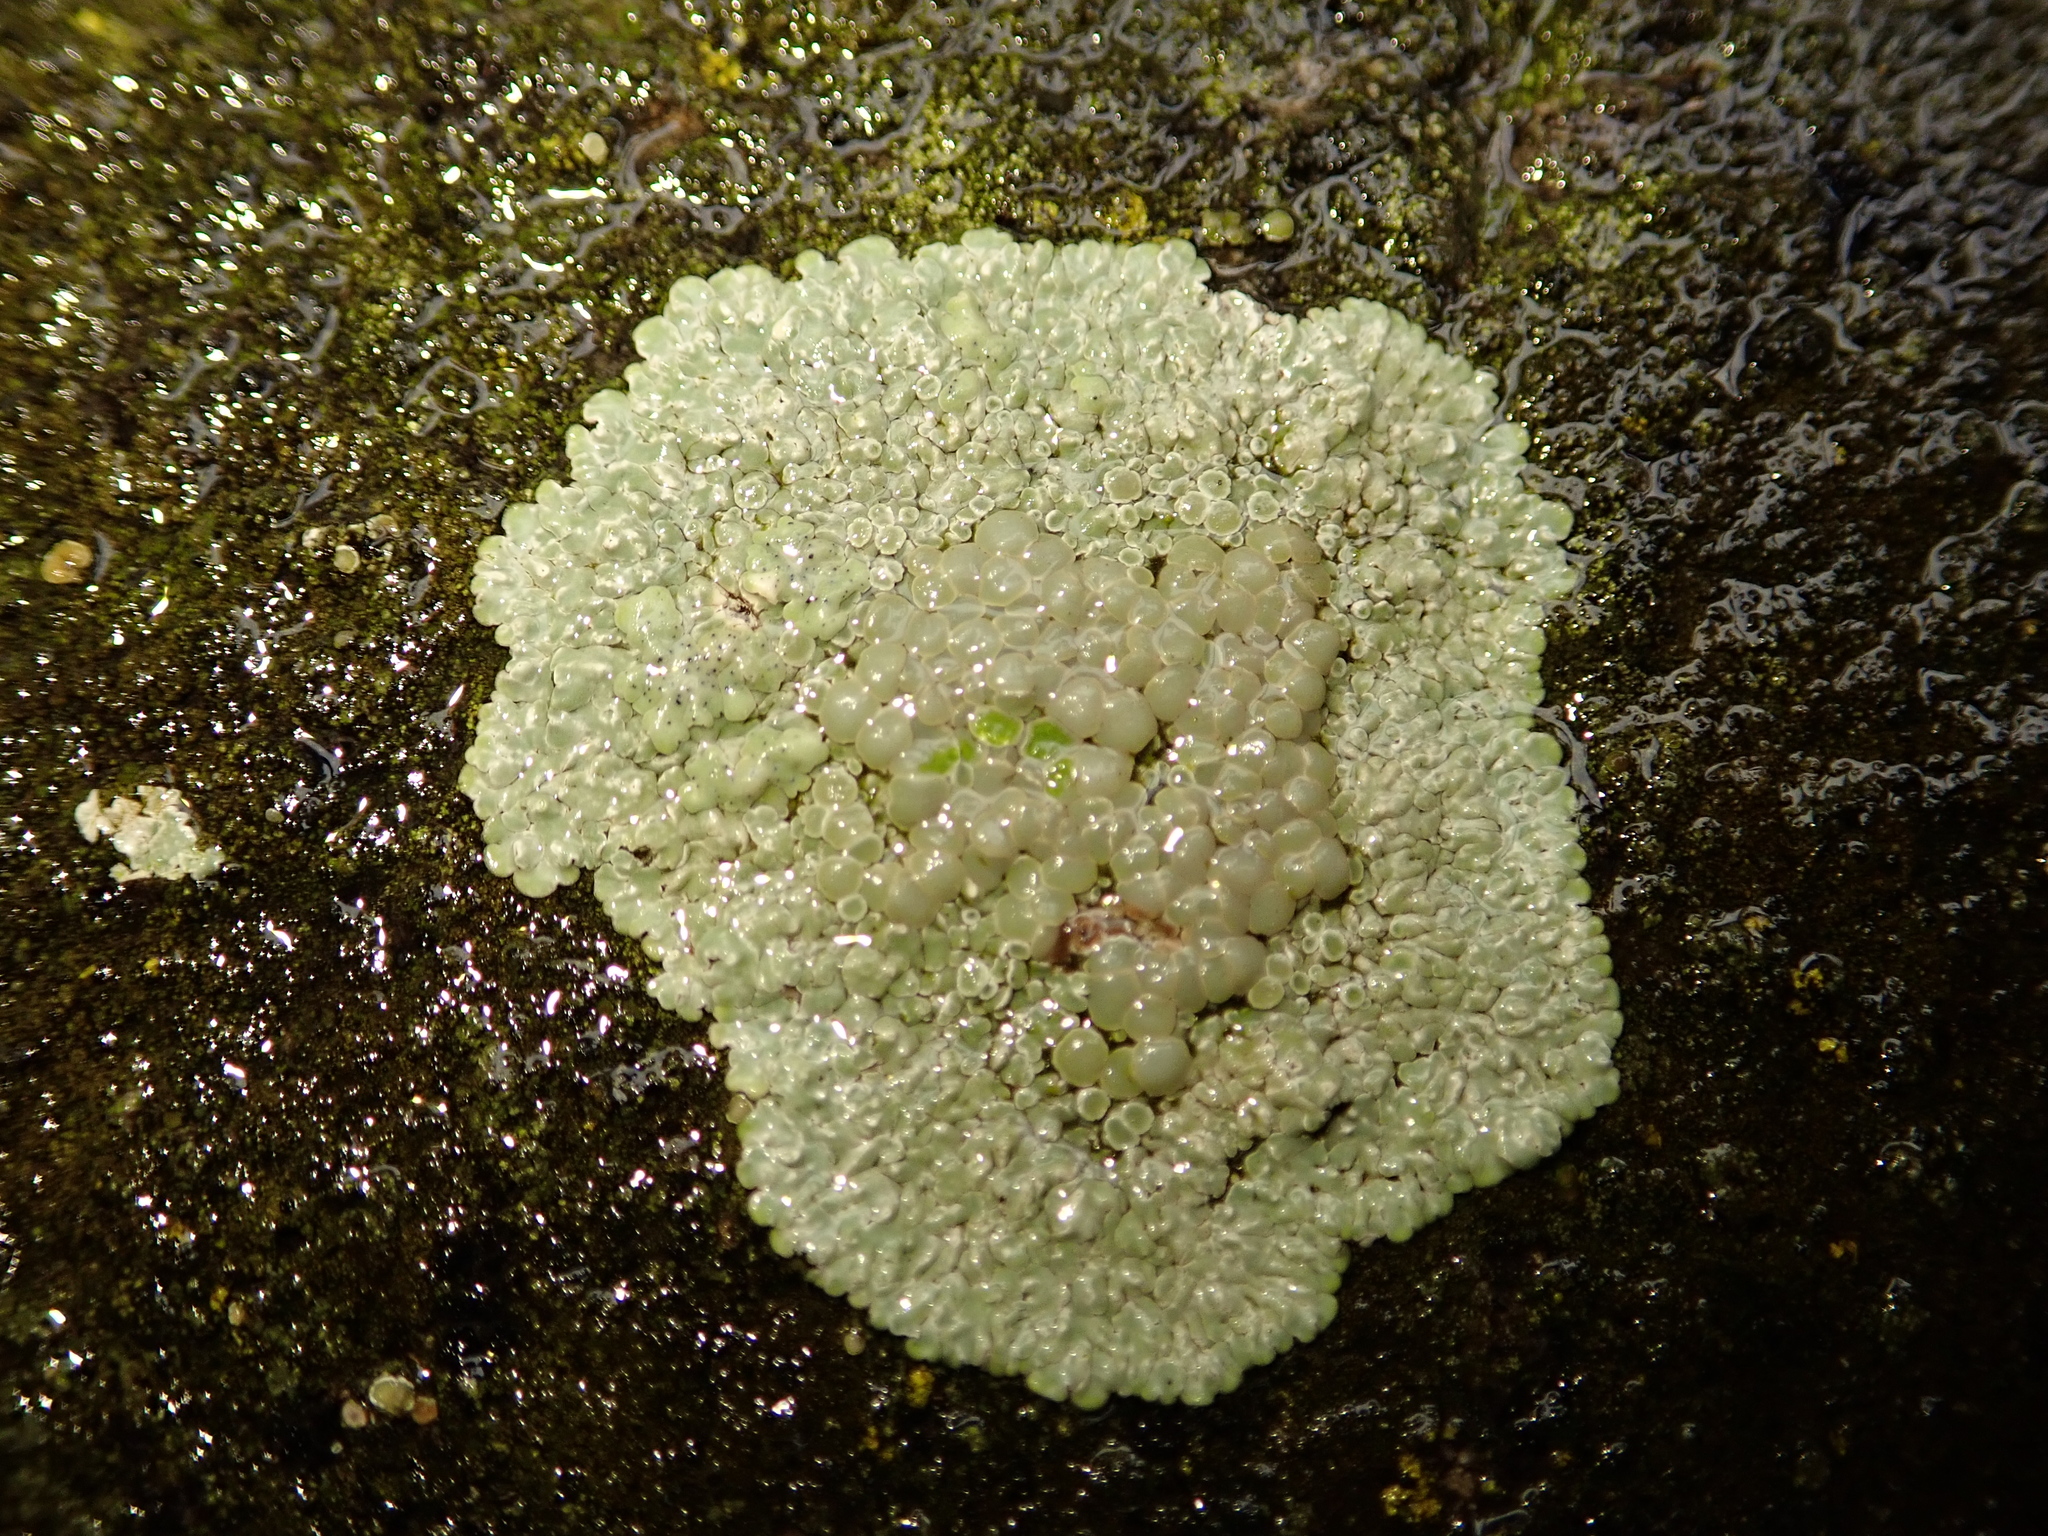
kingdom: Fungi
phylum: Ascomycota
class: Lecanoromycetes
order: Lecanorales
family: Lecanoraceae
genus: Protoparmeliopsis
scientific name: Protoparmeliopsis muralis
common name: Stonewall rim lichen
